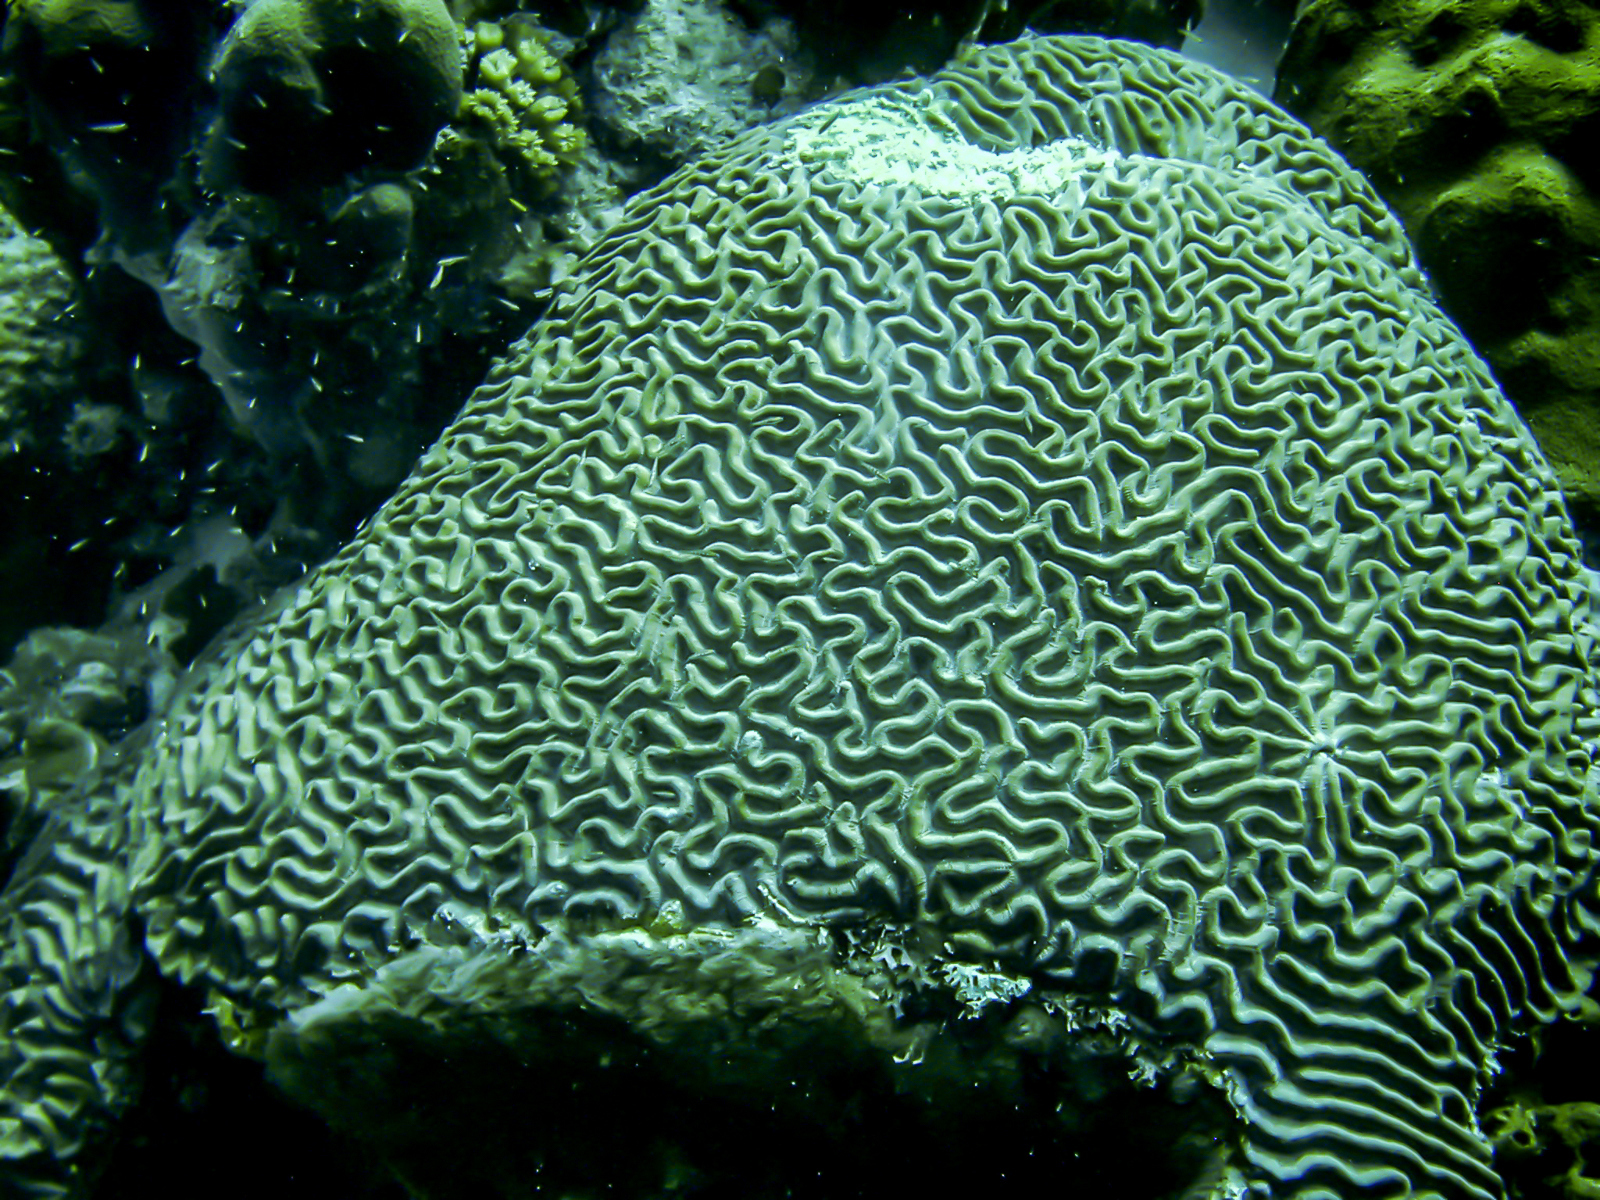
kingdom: Animalia
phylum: Cnidaria
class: Anthozoa
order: Scleractinia
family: Faviidae
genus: Colpophyllia
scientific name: Colpophyllia natans
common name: Boulder brain coral
